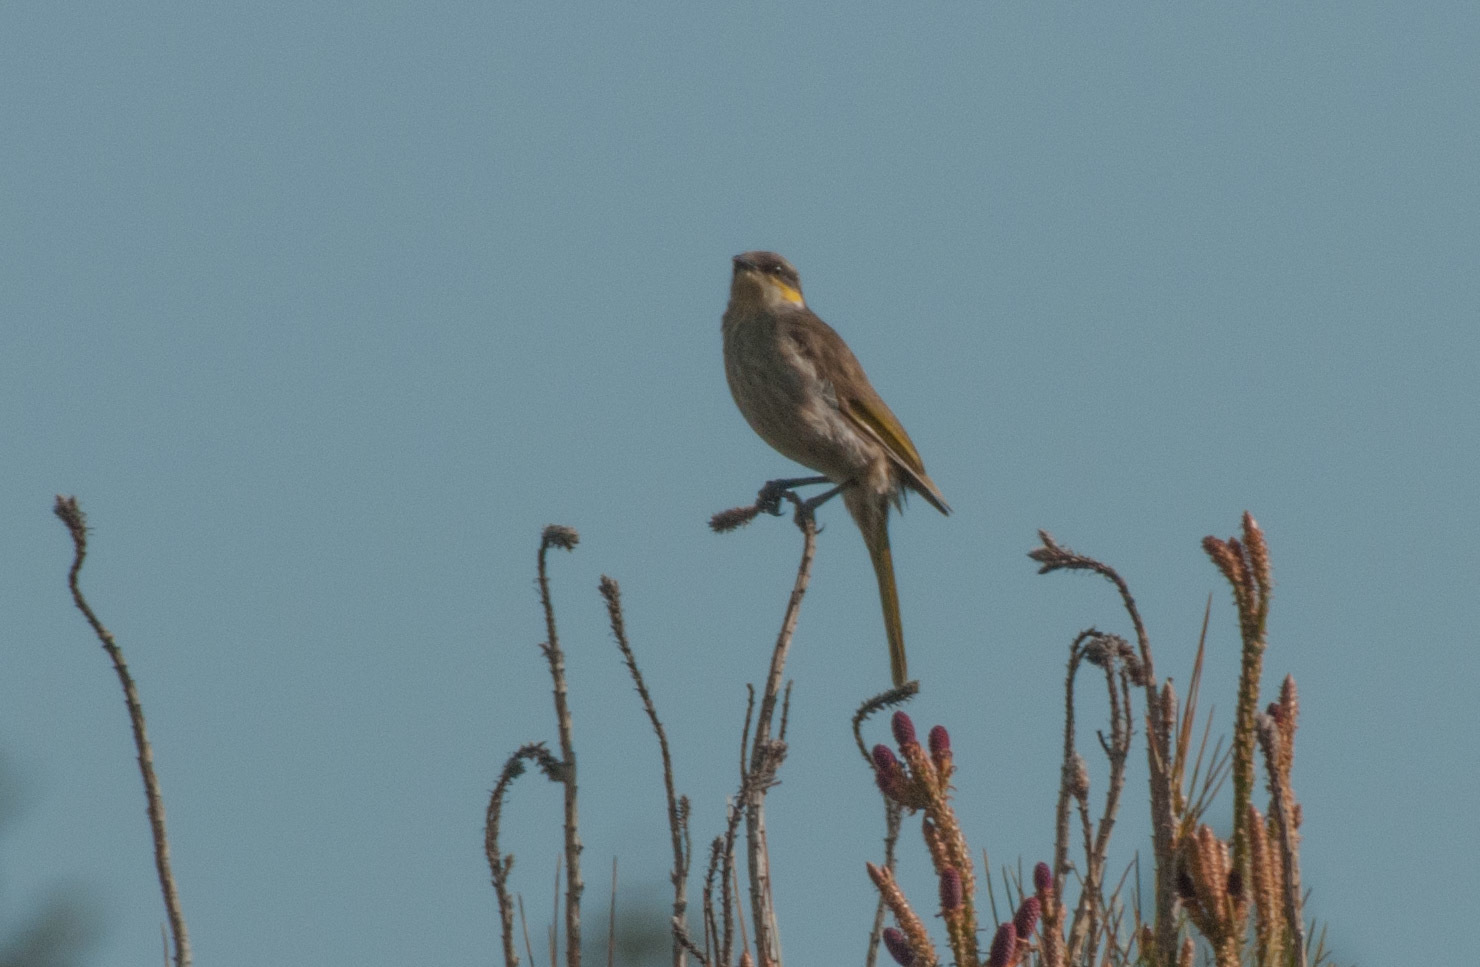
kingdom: Animalia
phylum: Chordata
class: Aves
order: Passeriformes
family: Meliphagidae
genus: Gavicalis
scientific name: Gavicalis virescens
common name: Singing honeyeater
